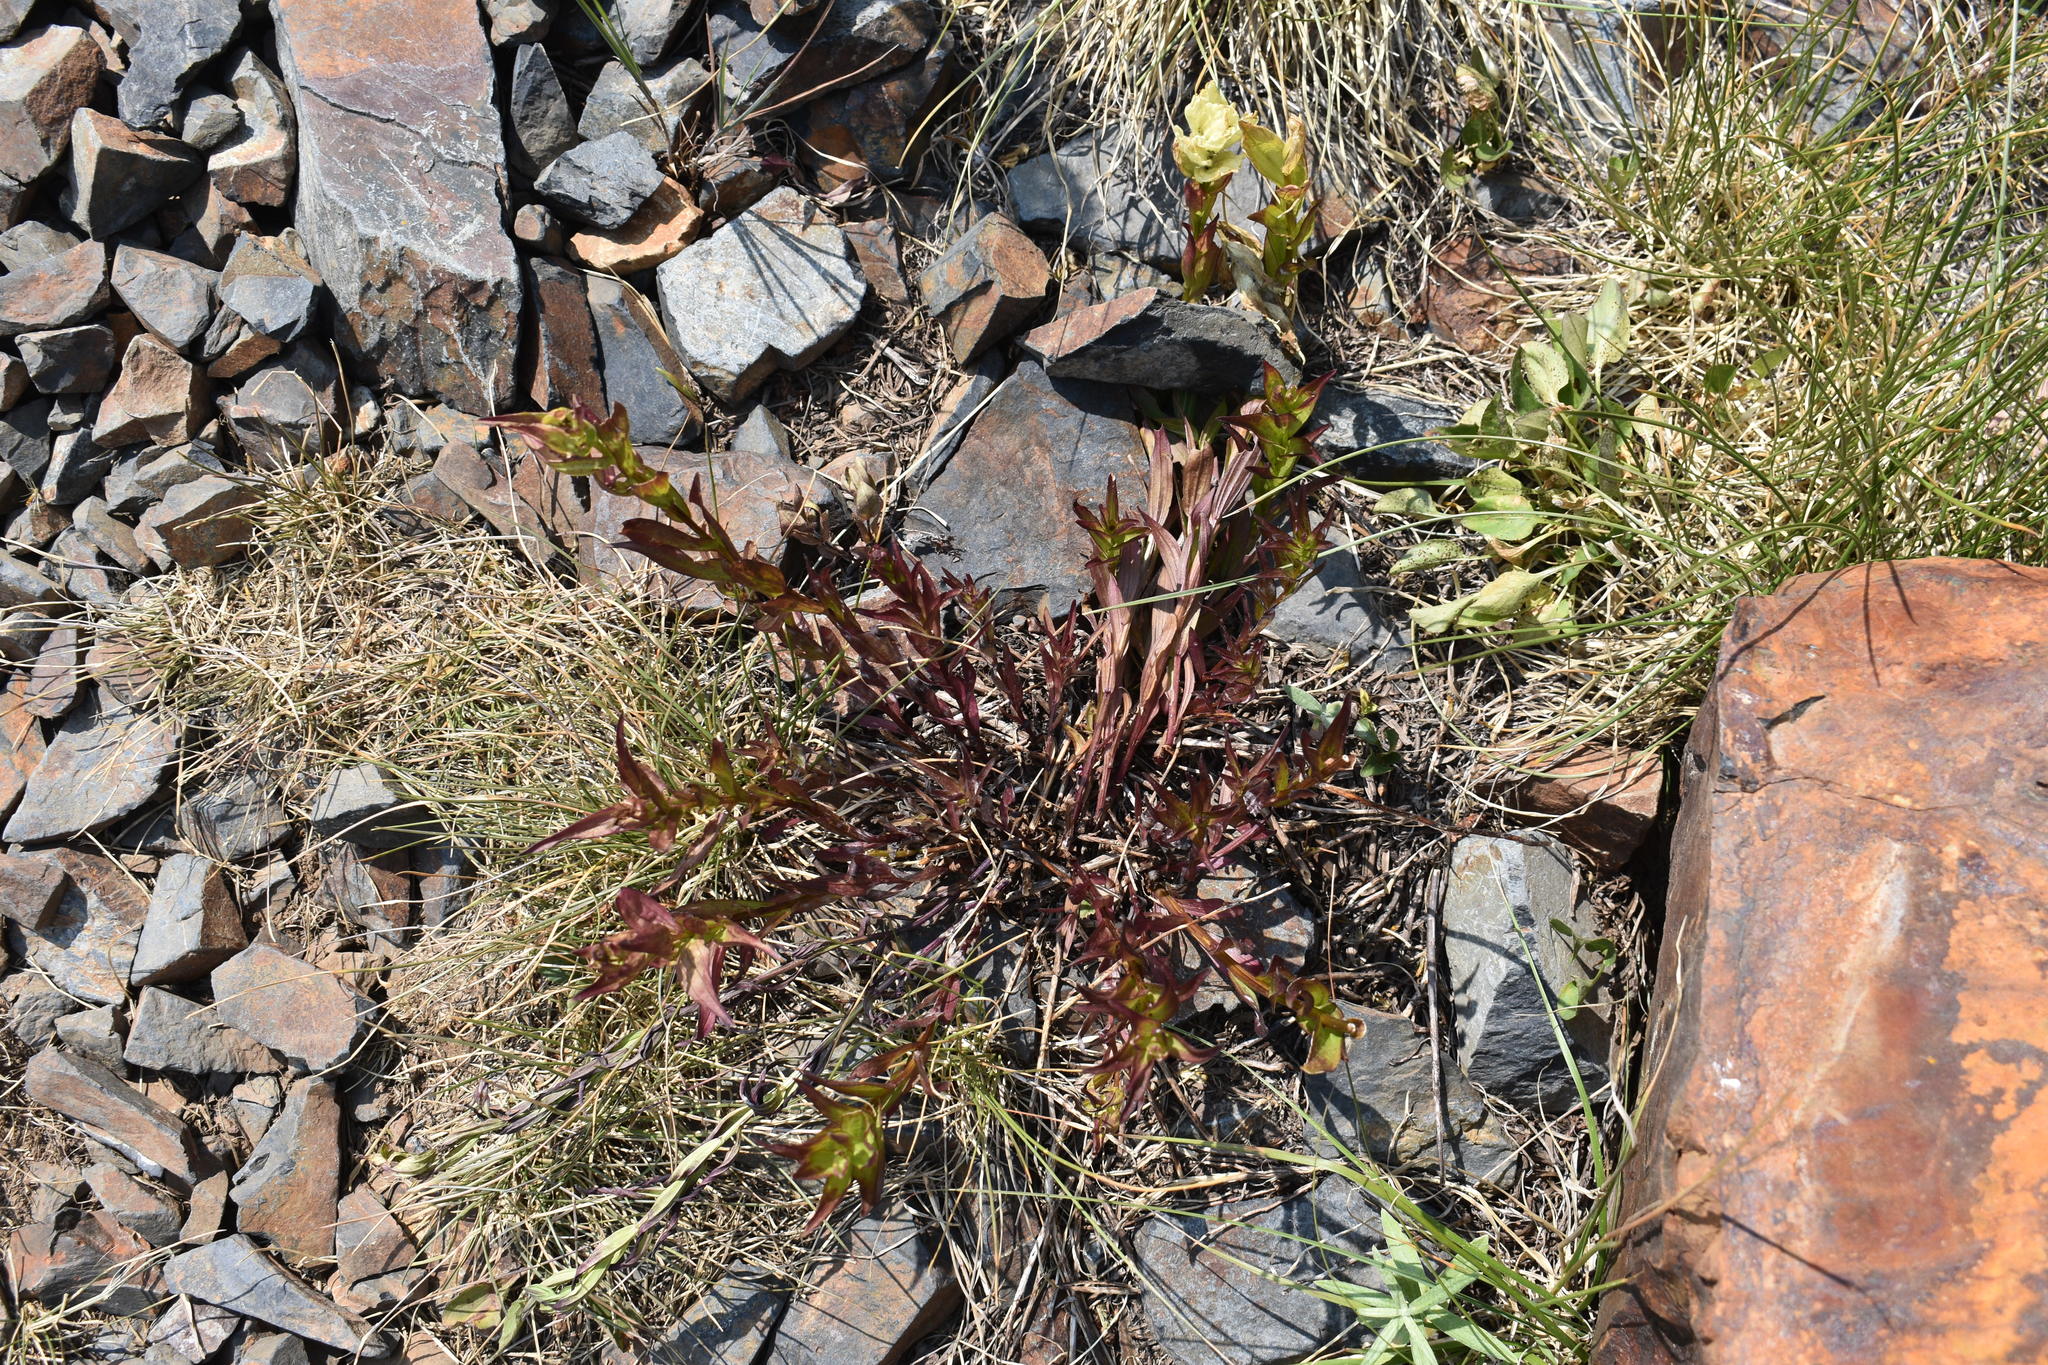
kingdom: Plantae
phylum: Tracheophyta
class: Magnoliopsida
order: Lamiales
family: Orobanchaceae
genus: Castilleja
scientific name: Castilleja occidentalis
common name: Western paintbrush
